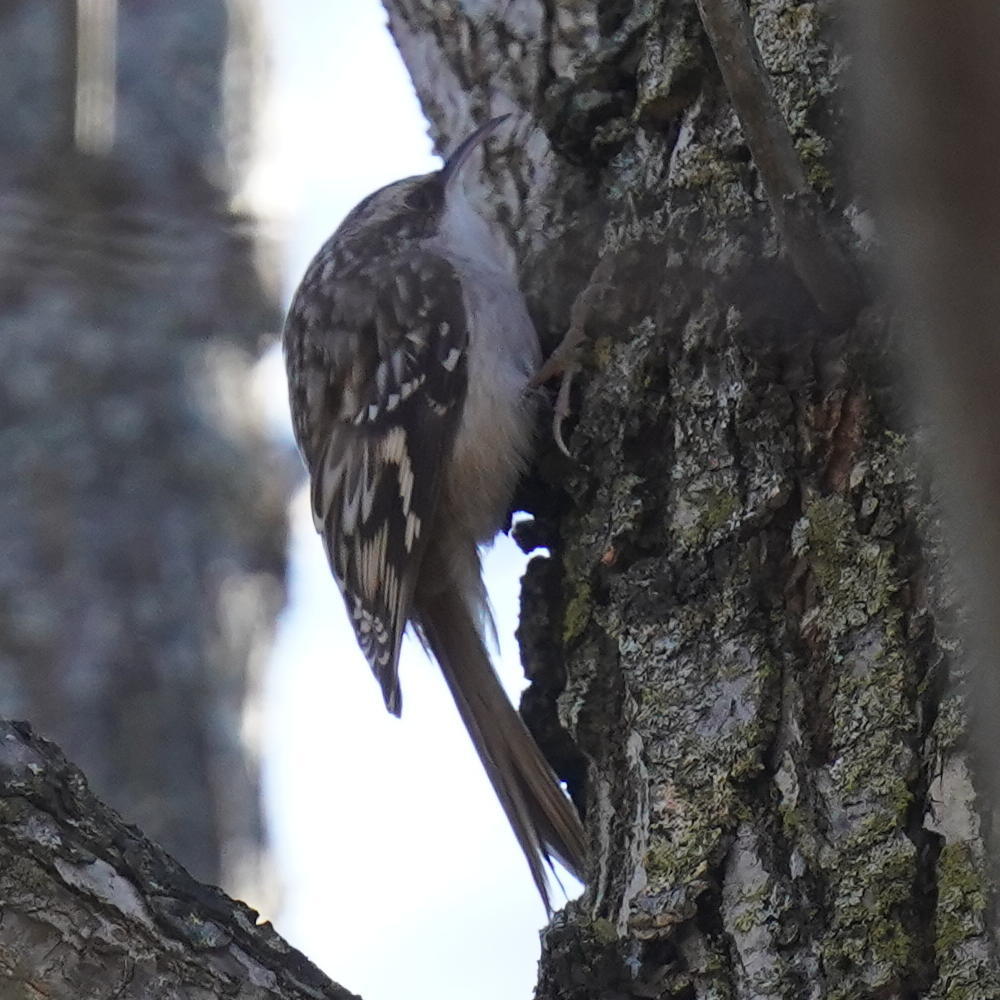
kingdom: Animalia
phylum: Chordata
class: Aves
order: Passeriformes
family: Certhiidae
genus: Certhia
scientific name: Certhia americana
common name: Brown creeper
